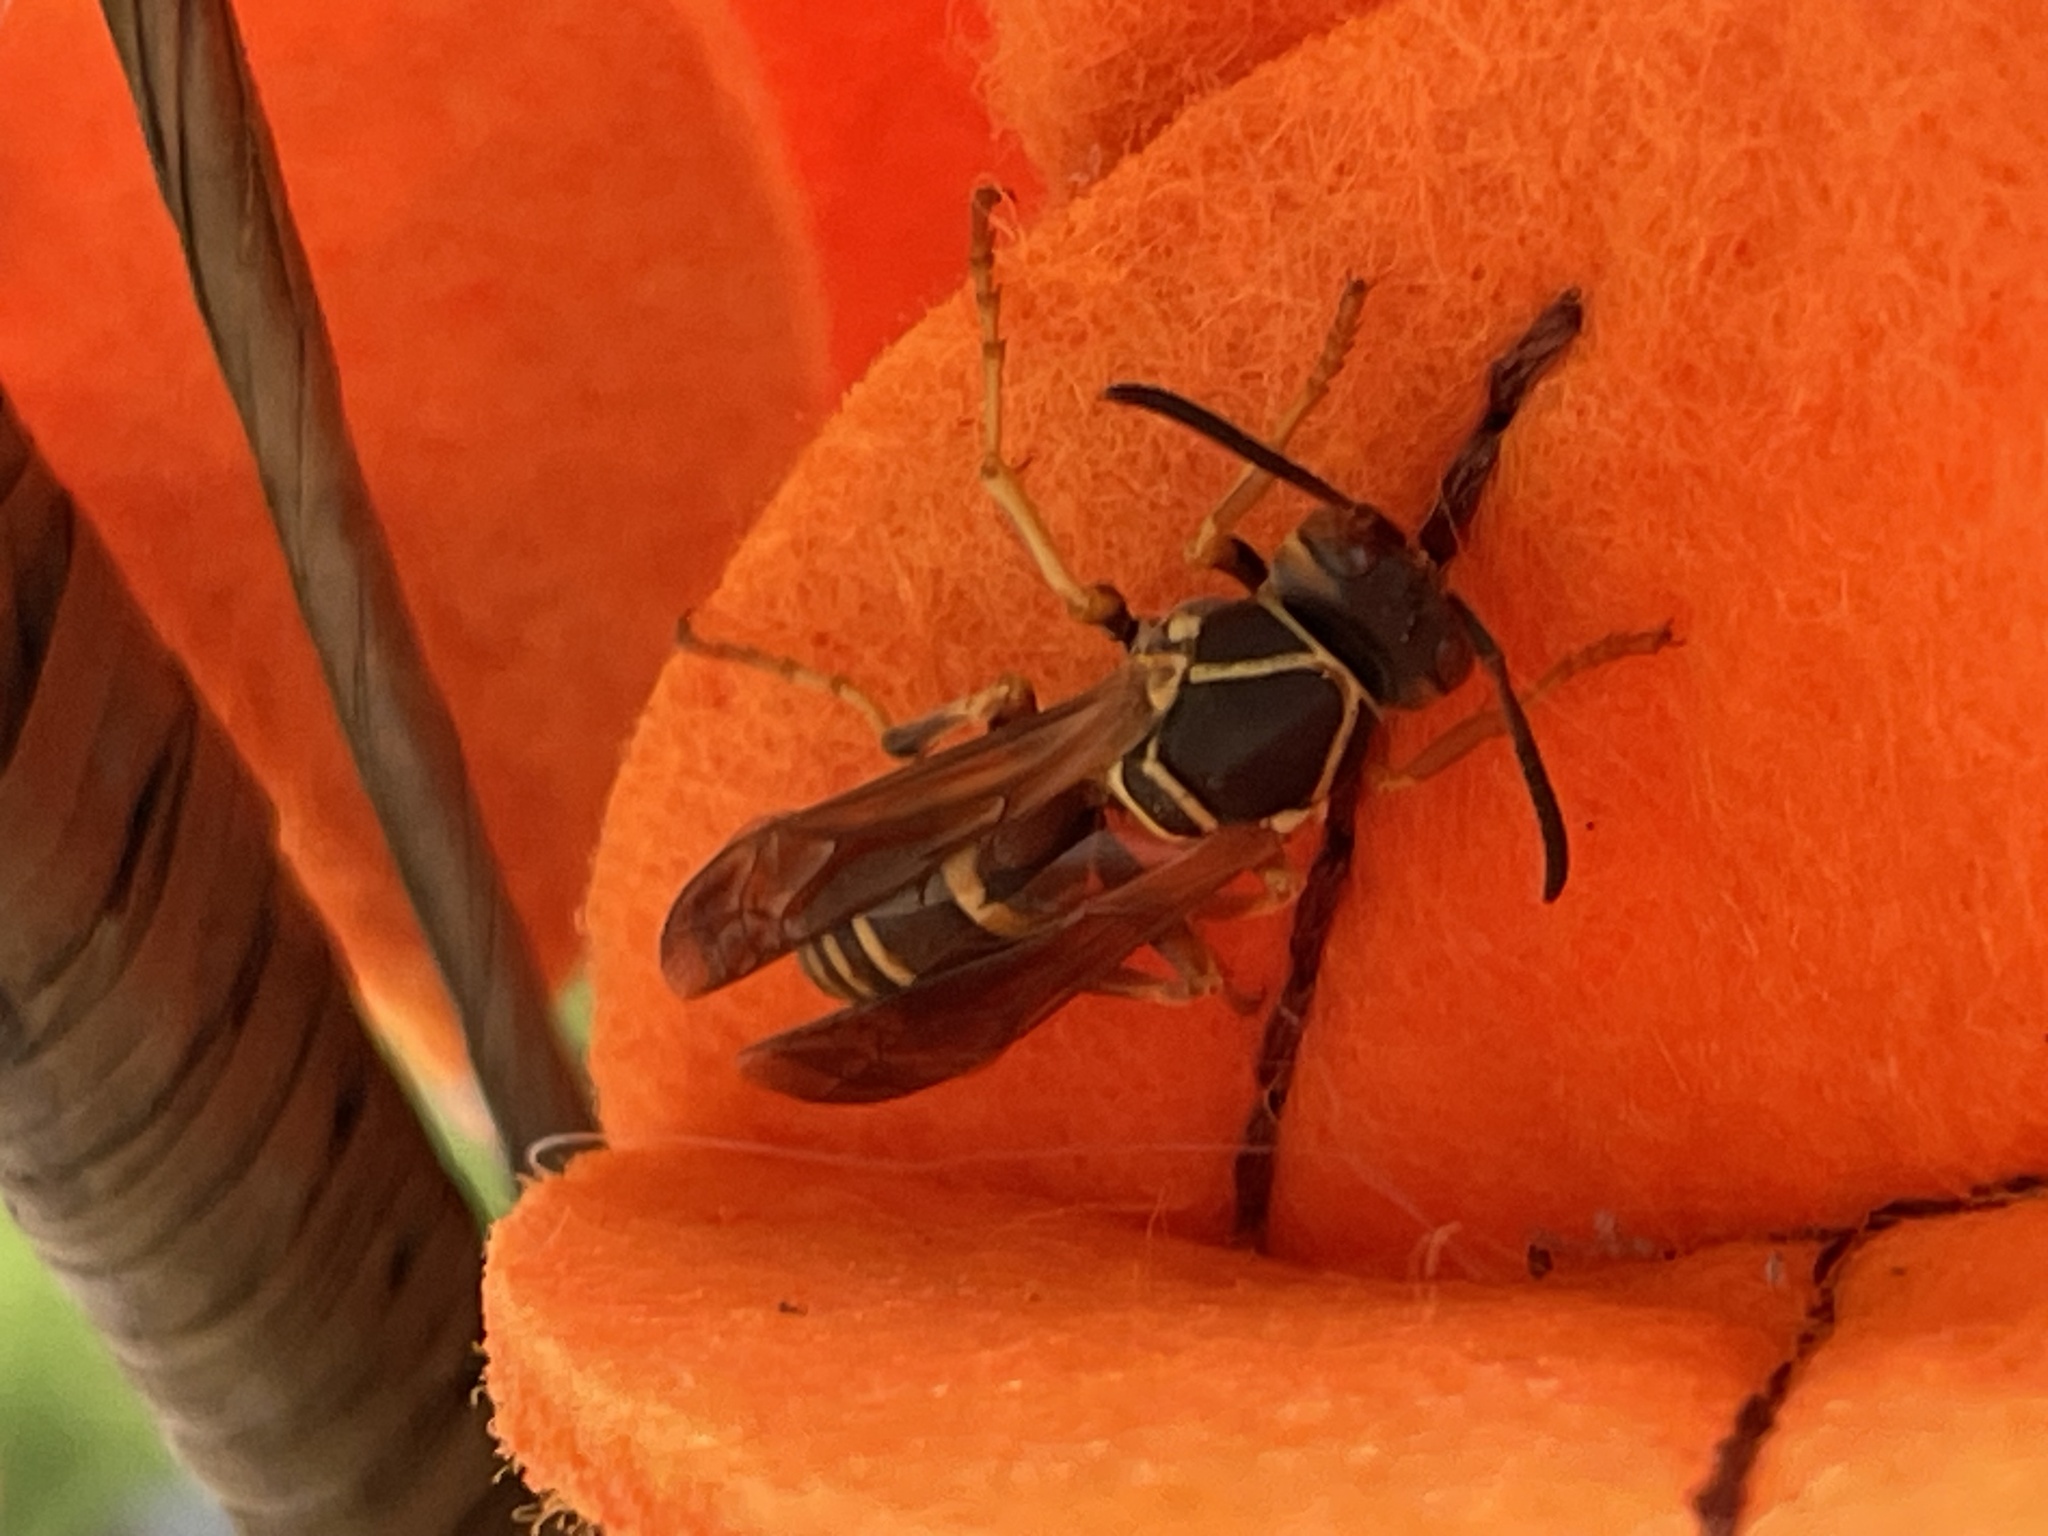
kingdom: Animalia
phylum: Arthropoda
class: Insecta
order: Hymenoptera
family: Eumenidae
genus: Polistes
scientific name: Polistes fuscatus
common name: Dark paper wasp
